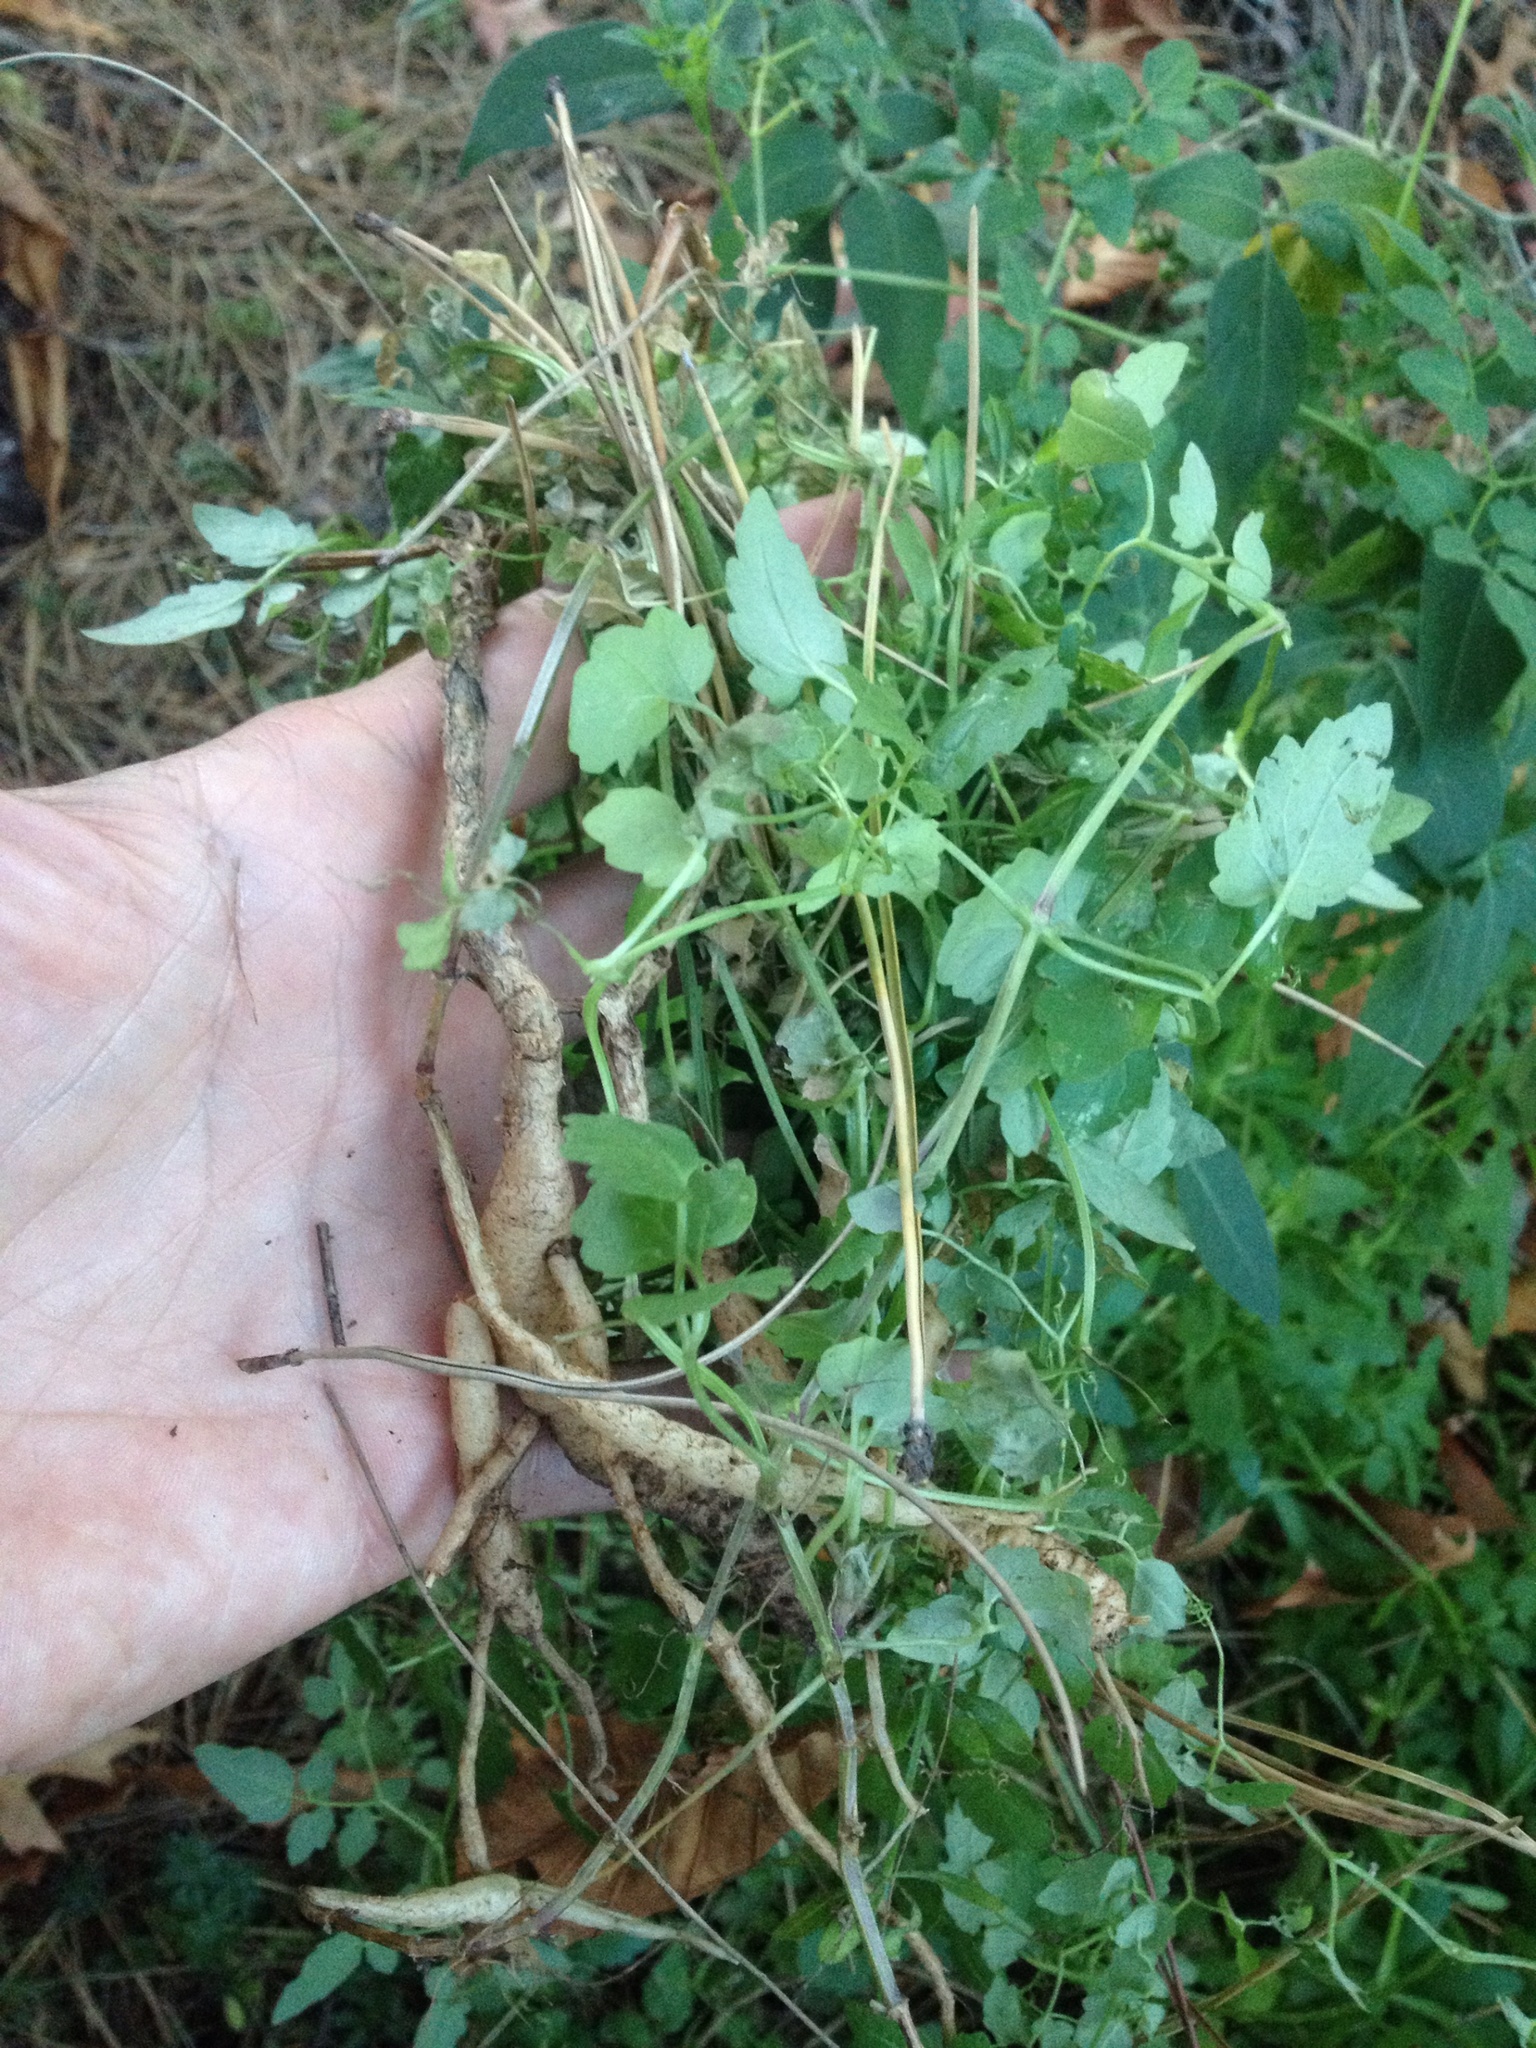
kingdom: Plantae
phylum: Tracheophyta
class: Magnoliopsida
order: Lamiales
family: Bignoniaceae
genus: Eccremocarpus
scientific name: Eccremocarpus scaber
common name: Chilean glory-flower
